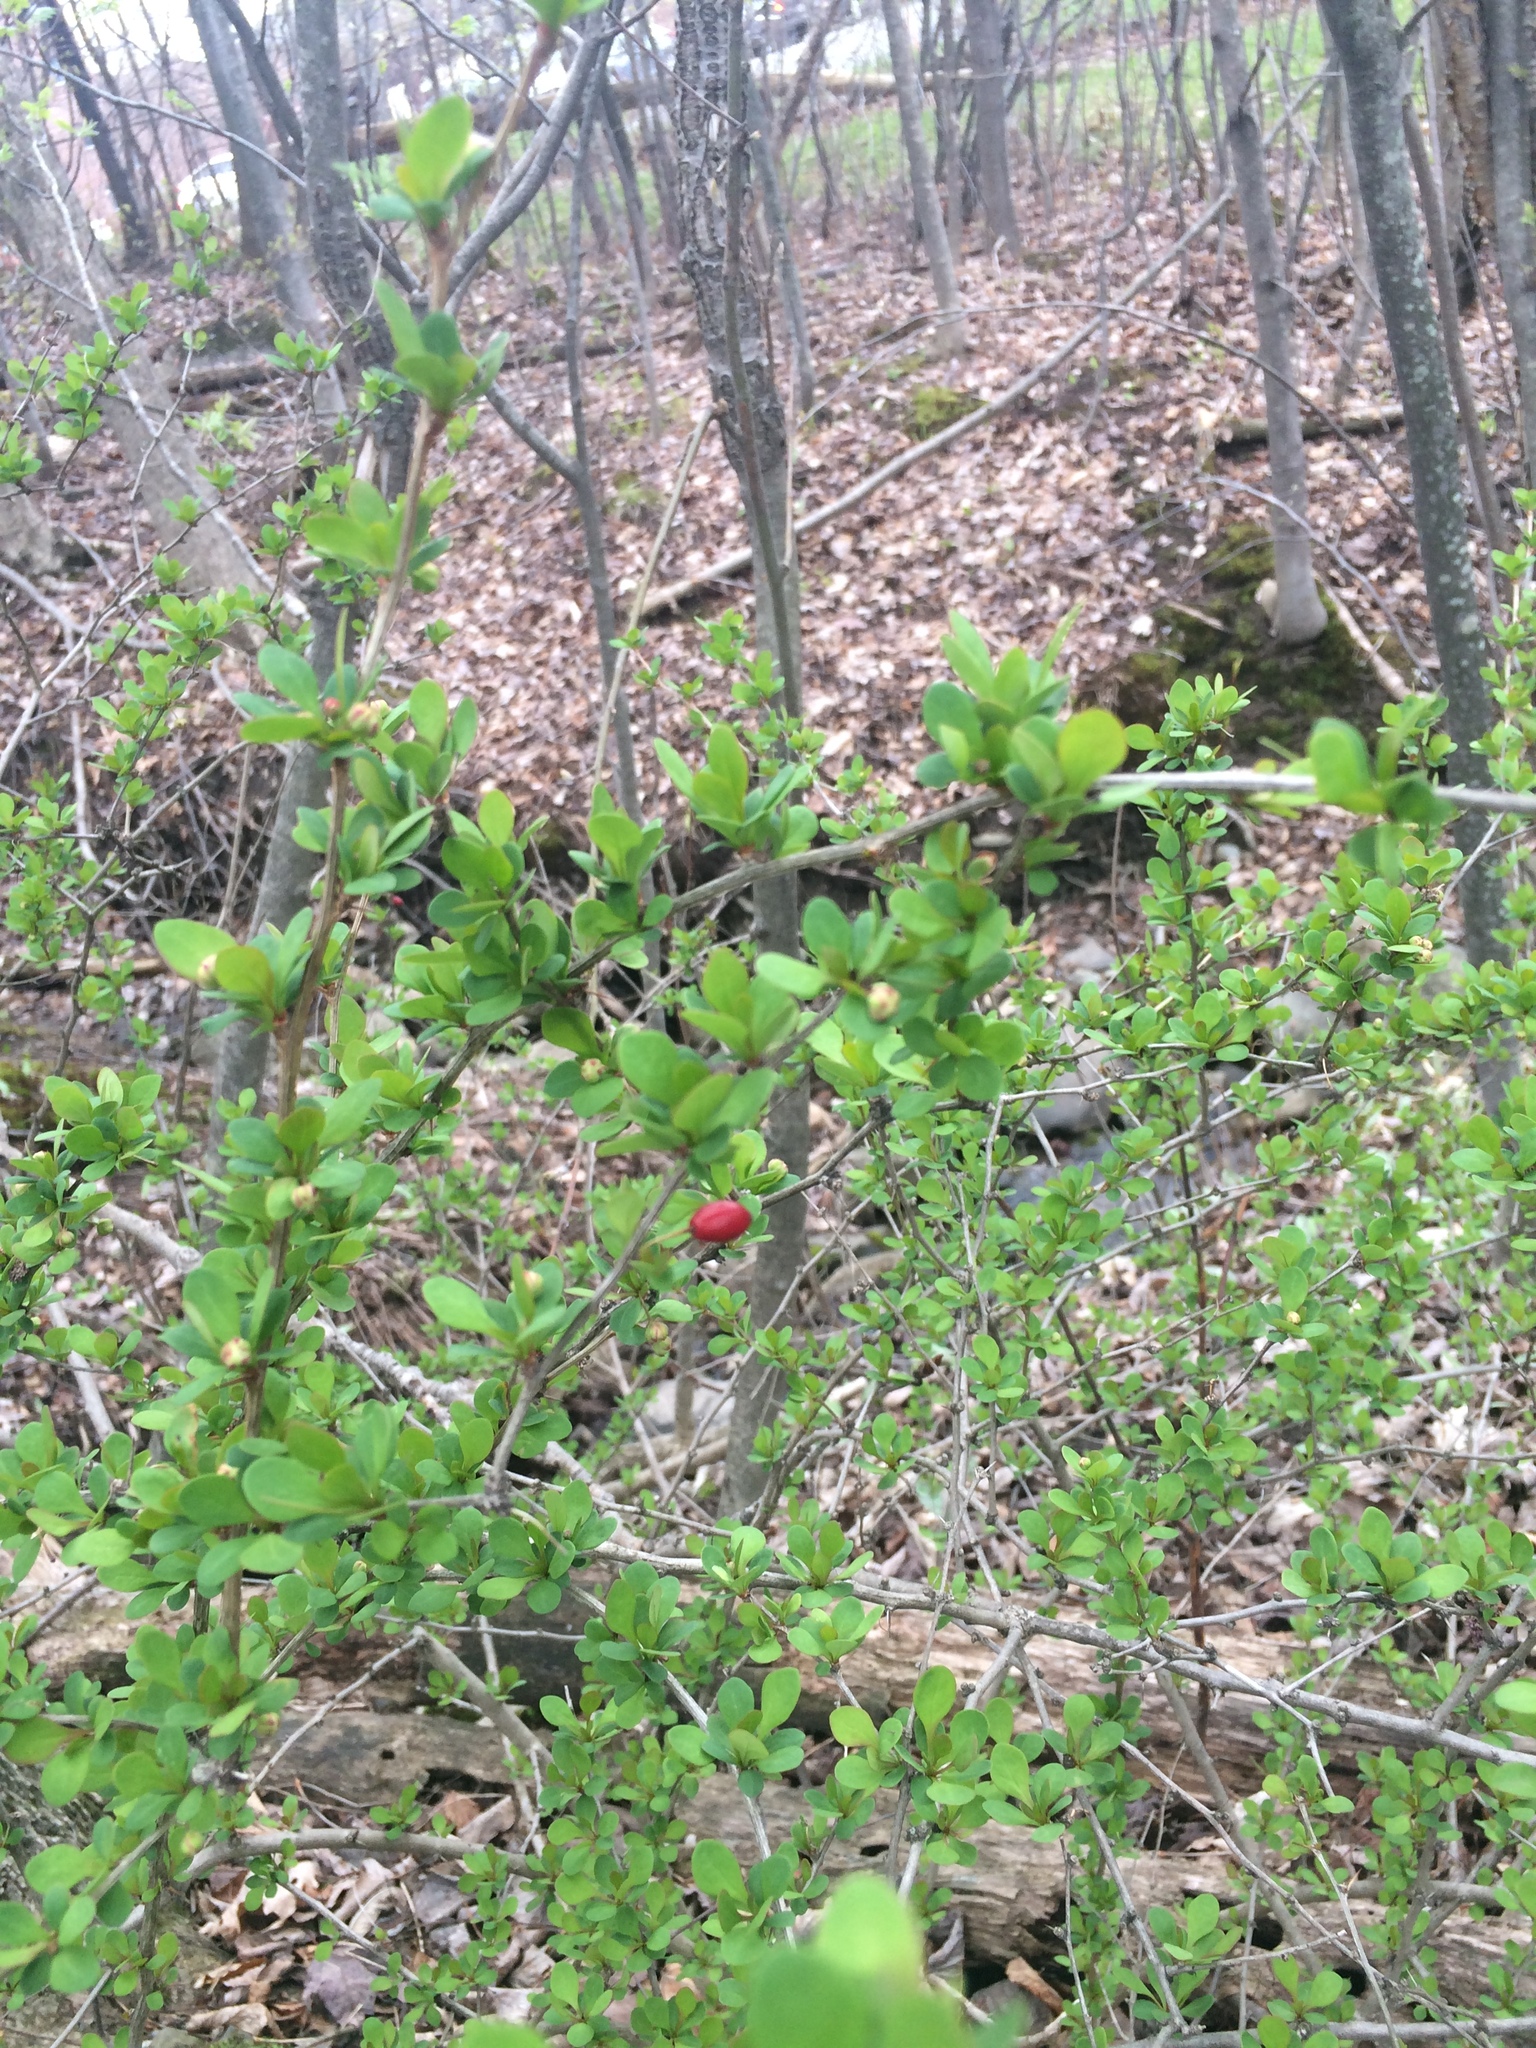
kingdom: Plantae
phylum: Tracheophyta
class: Magnoliopsida
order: Ranunculales
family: Berberidaceae
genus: Berberis
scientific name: Berberis thunbergii
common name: Japanese barberry
